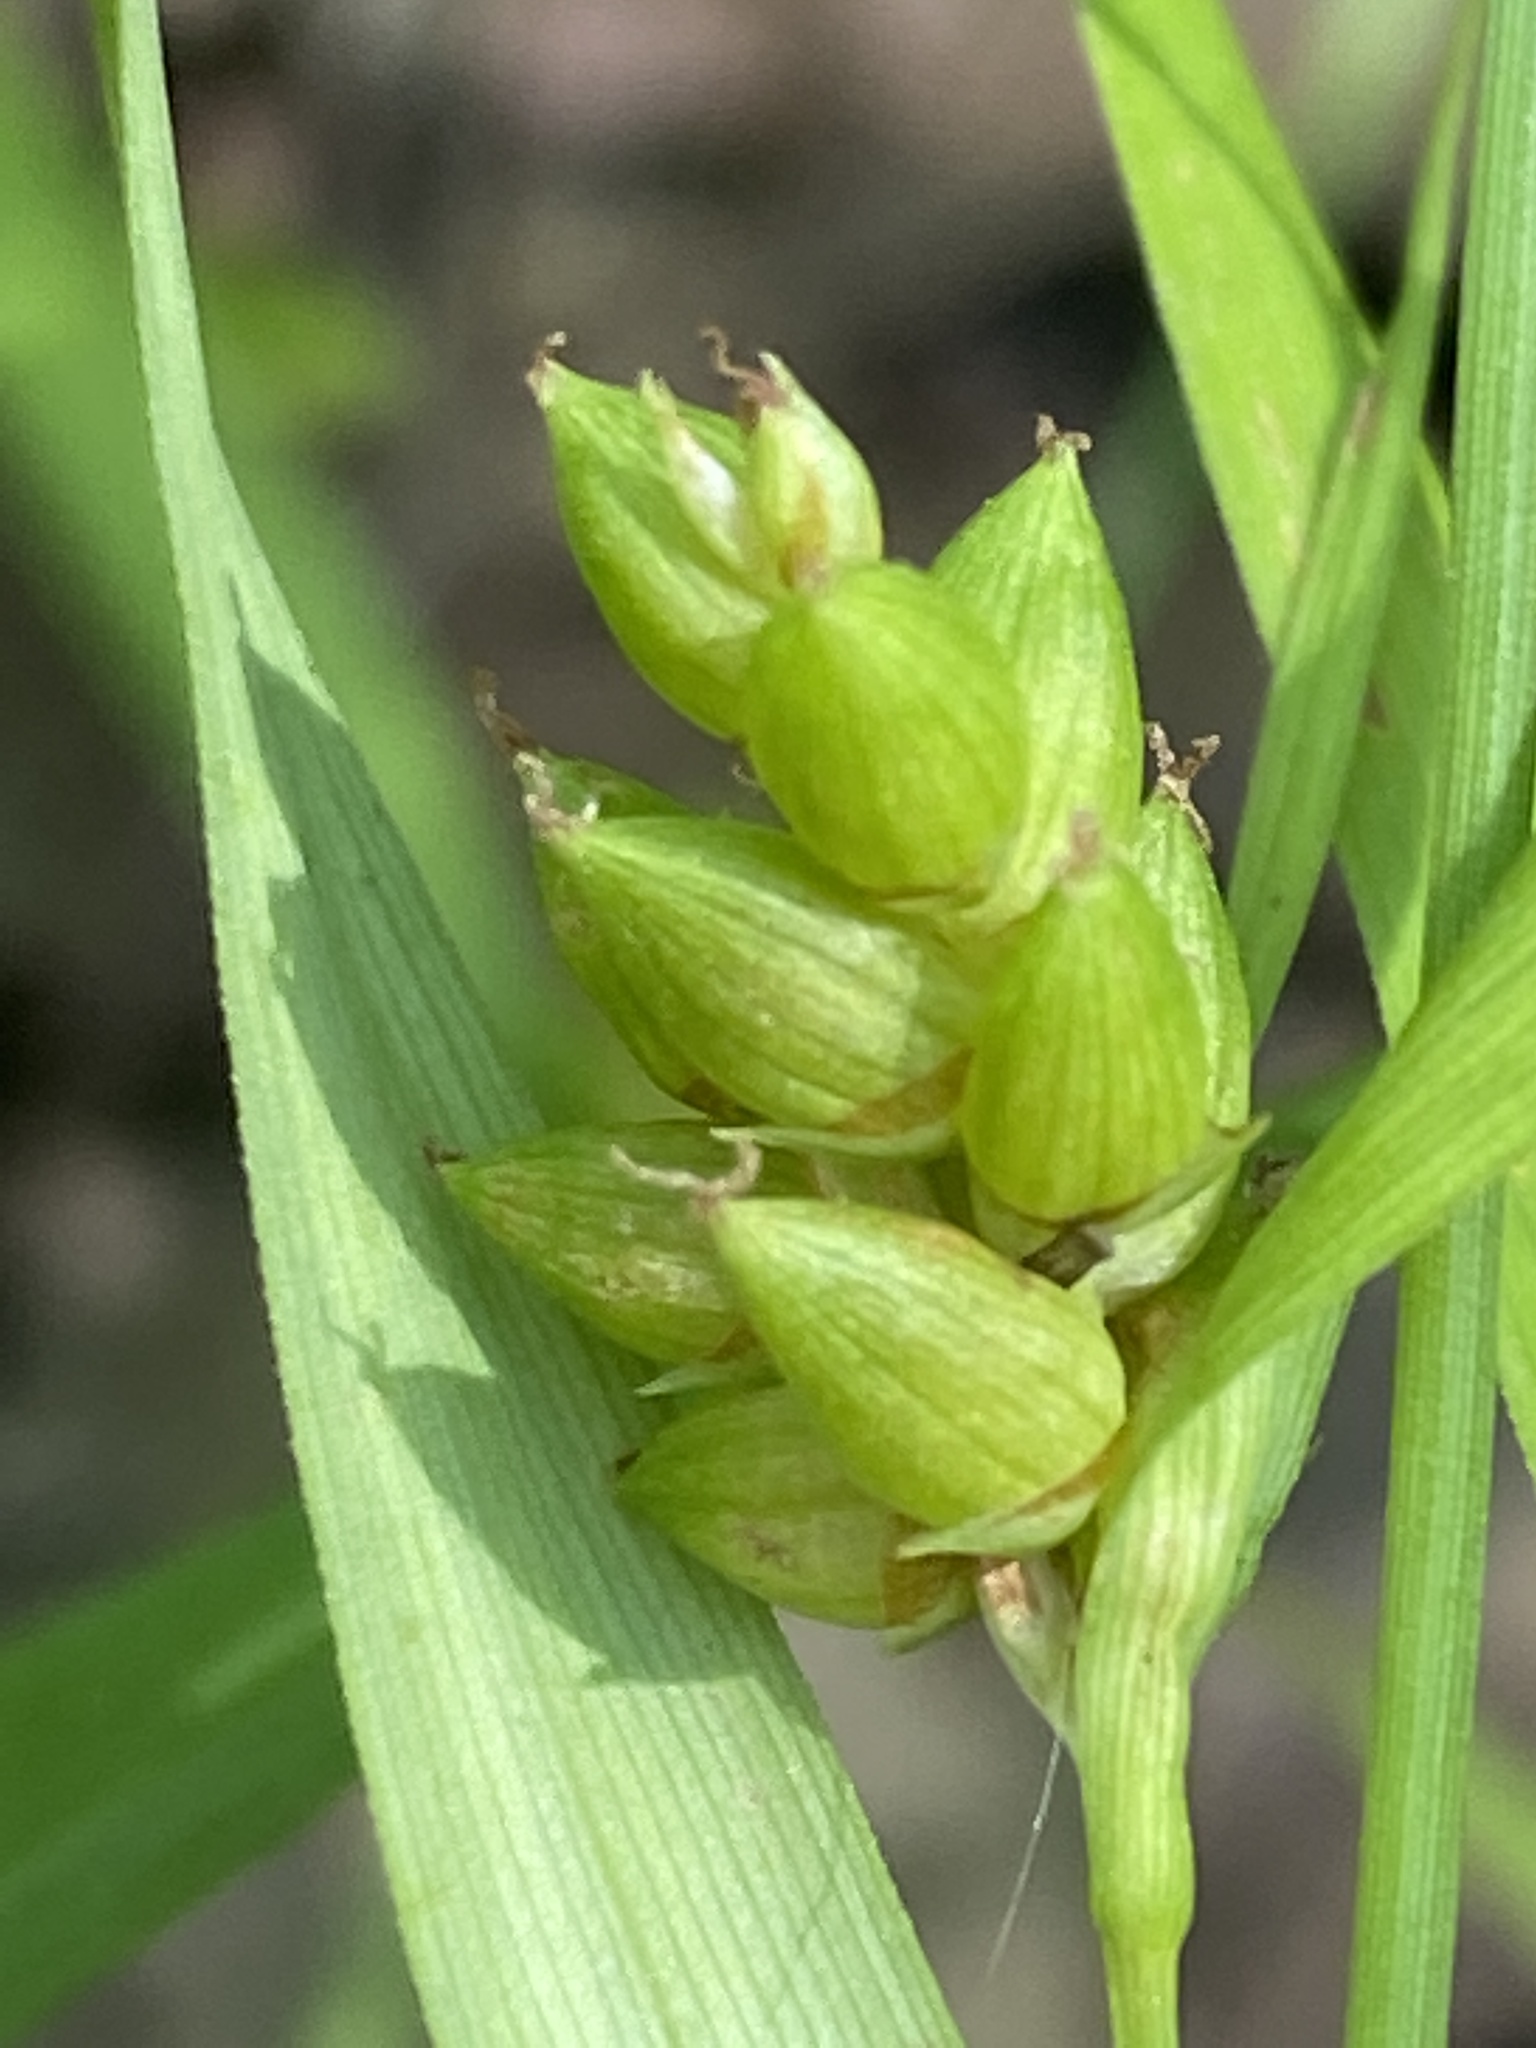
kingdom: Plantae
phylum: Tracheophyta
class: Liliopsida
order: Poales
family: Cyperaceae
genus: Carex
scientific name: Carex grisea
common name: Eastern narrow-leaved sedge
